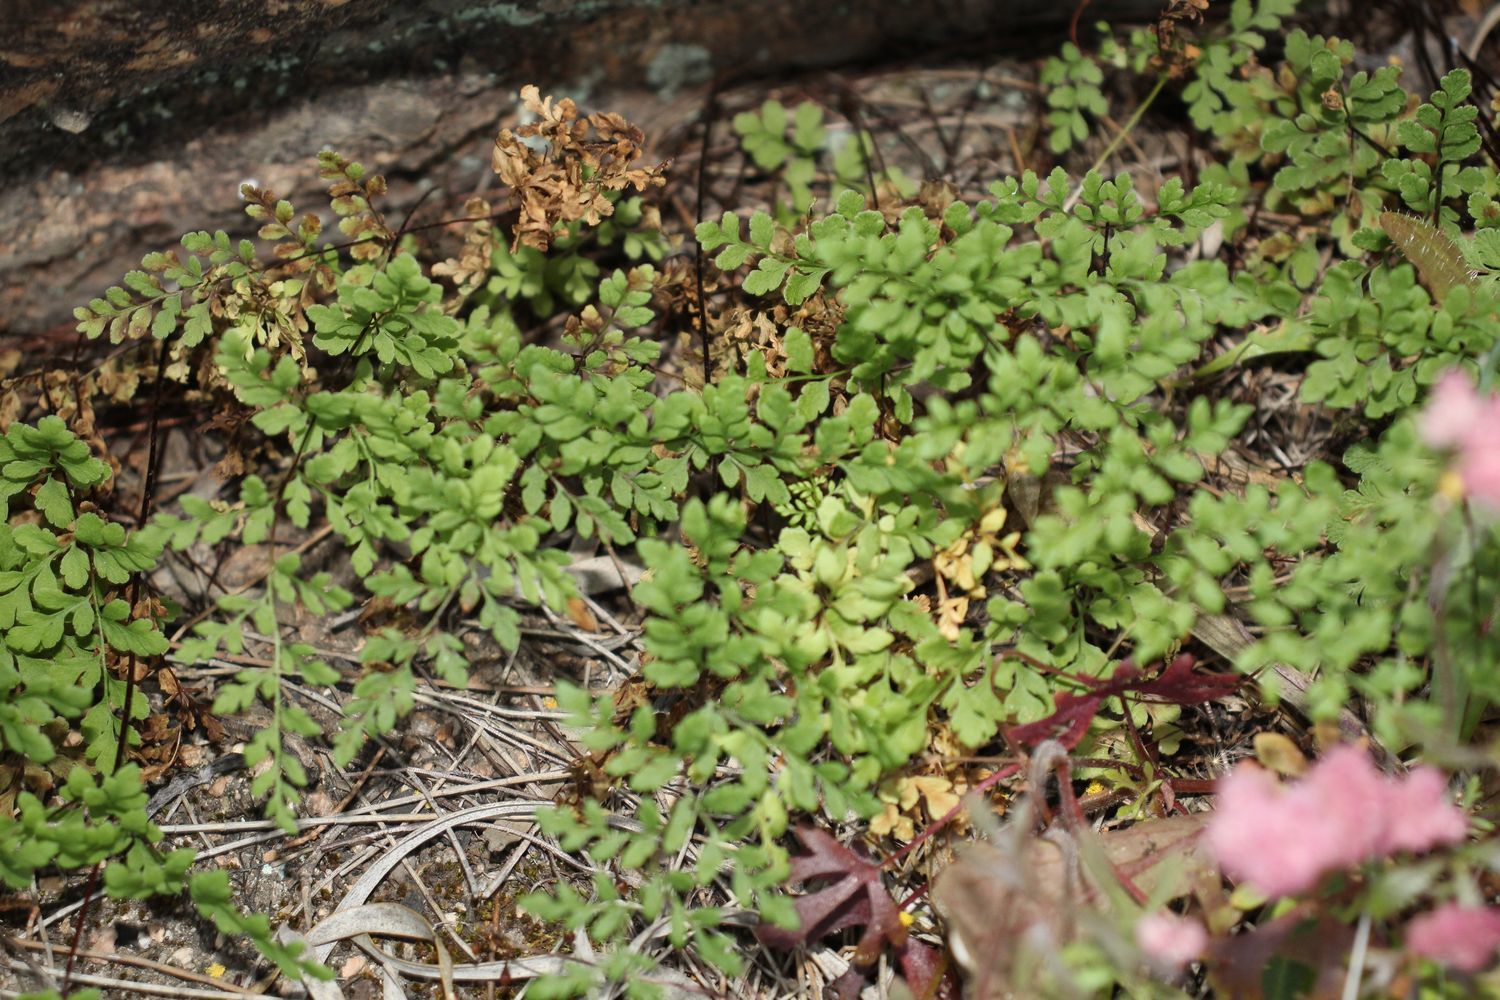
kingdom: Plantae
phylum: Tracheophyta
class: Polypodiopsida
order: Polypodiales
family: Pteridaceae
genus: Cheilanthes
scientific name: Cheilanthes austrotenuifolia
